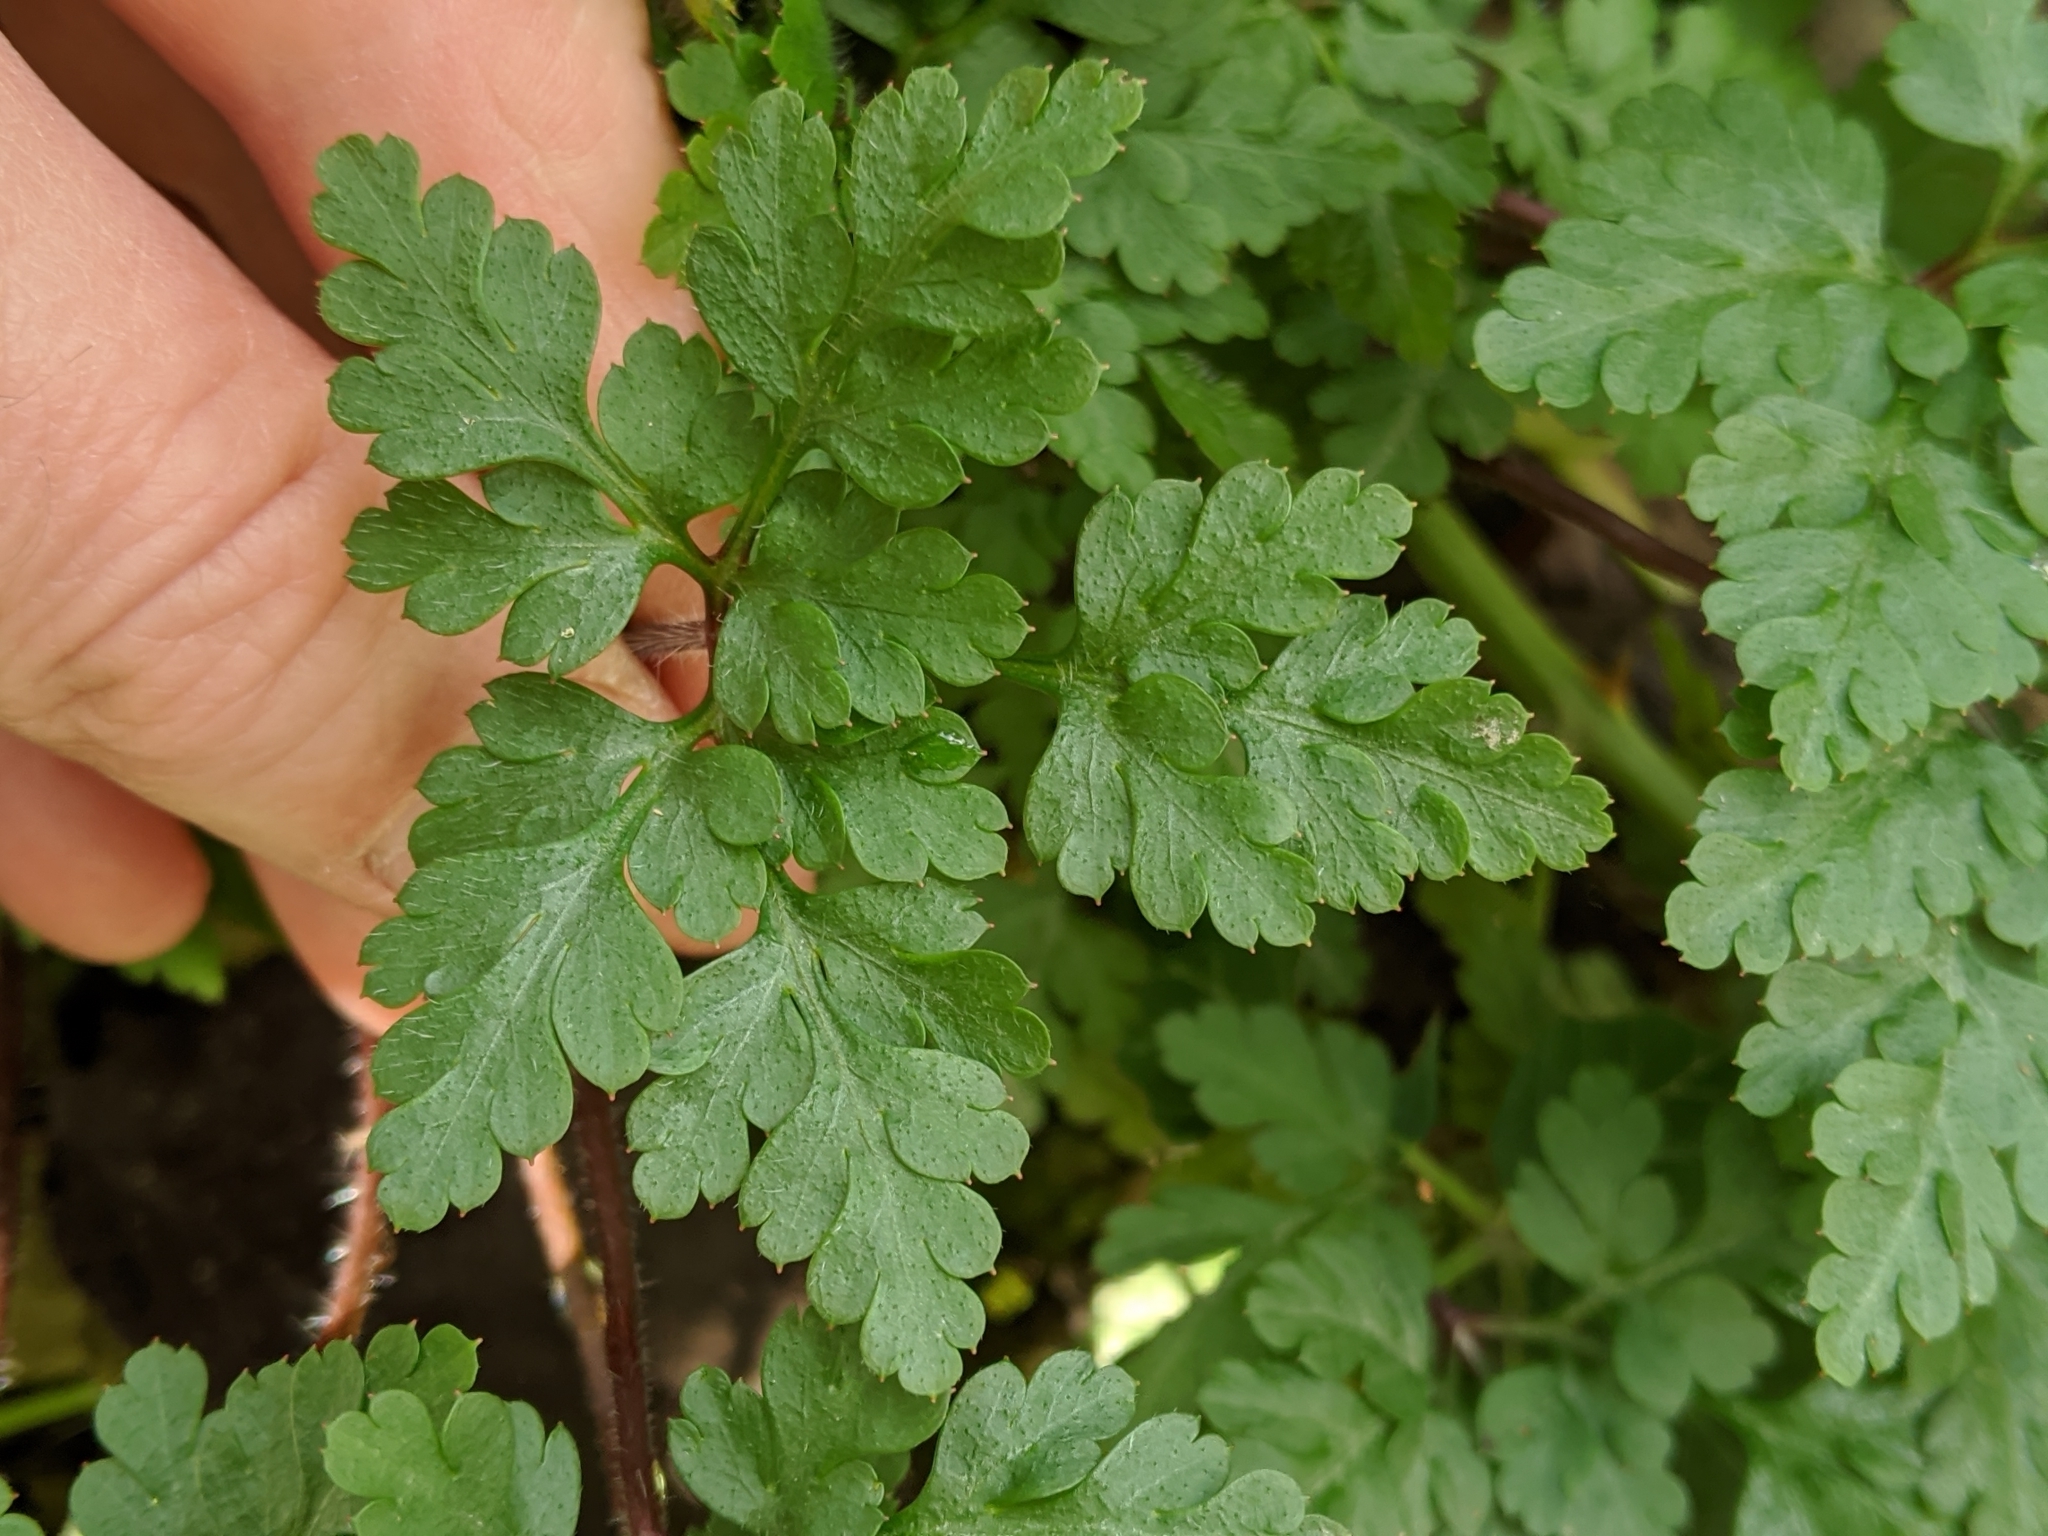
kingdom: Plantae
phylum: Tracheophyta
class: Magnoliopsida
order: Geraniales
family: Geraniaceae
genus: Geranium
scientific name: Geranium robertianum
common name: Herb-robert
